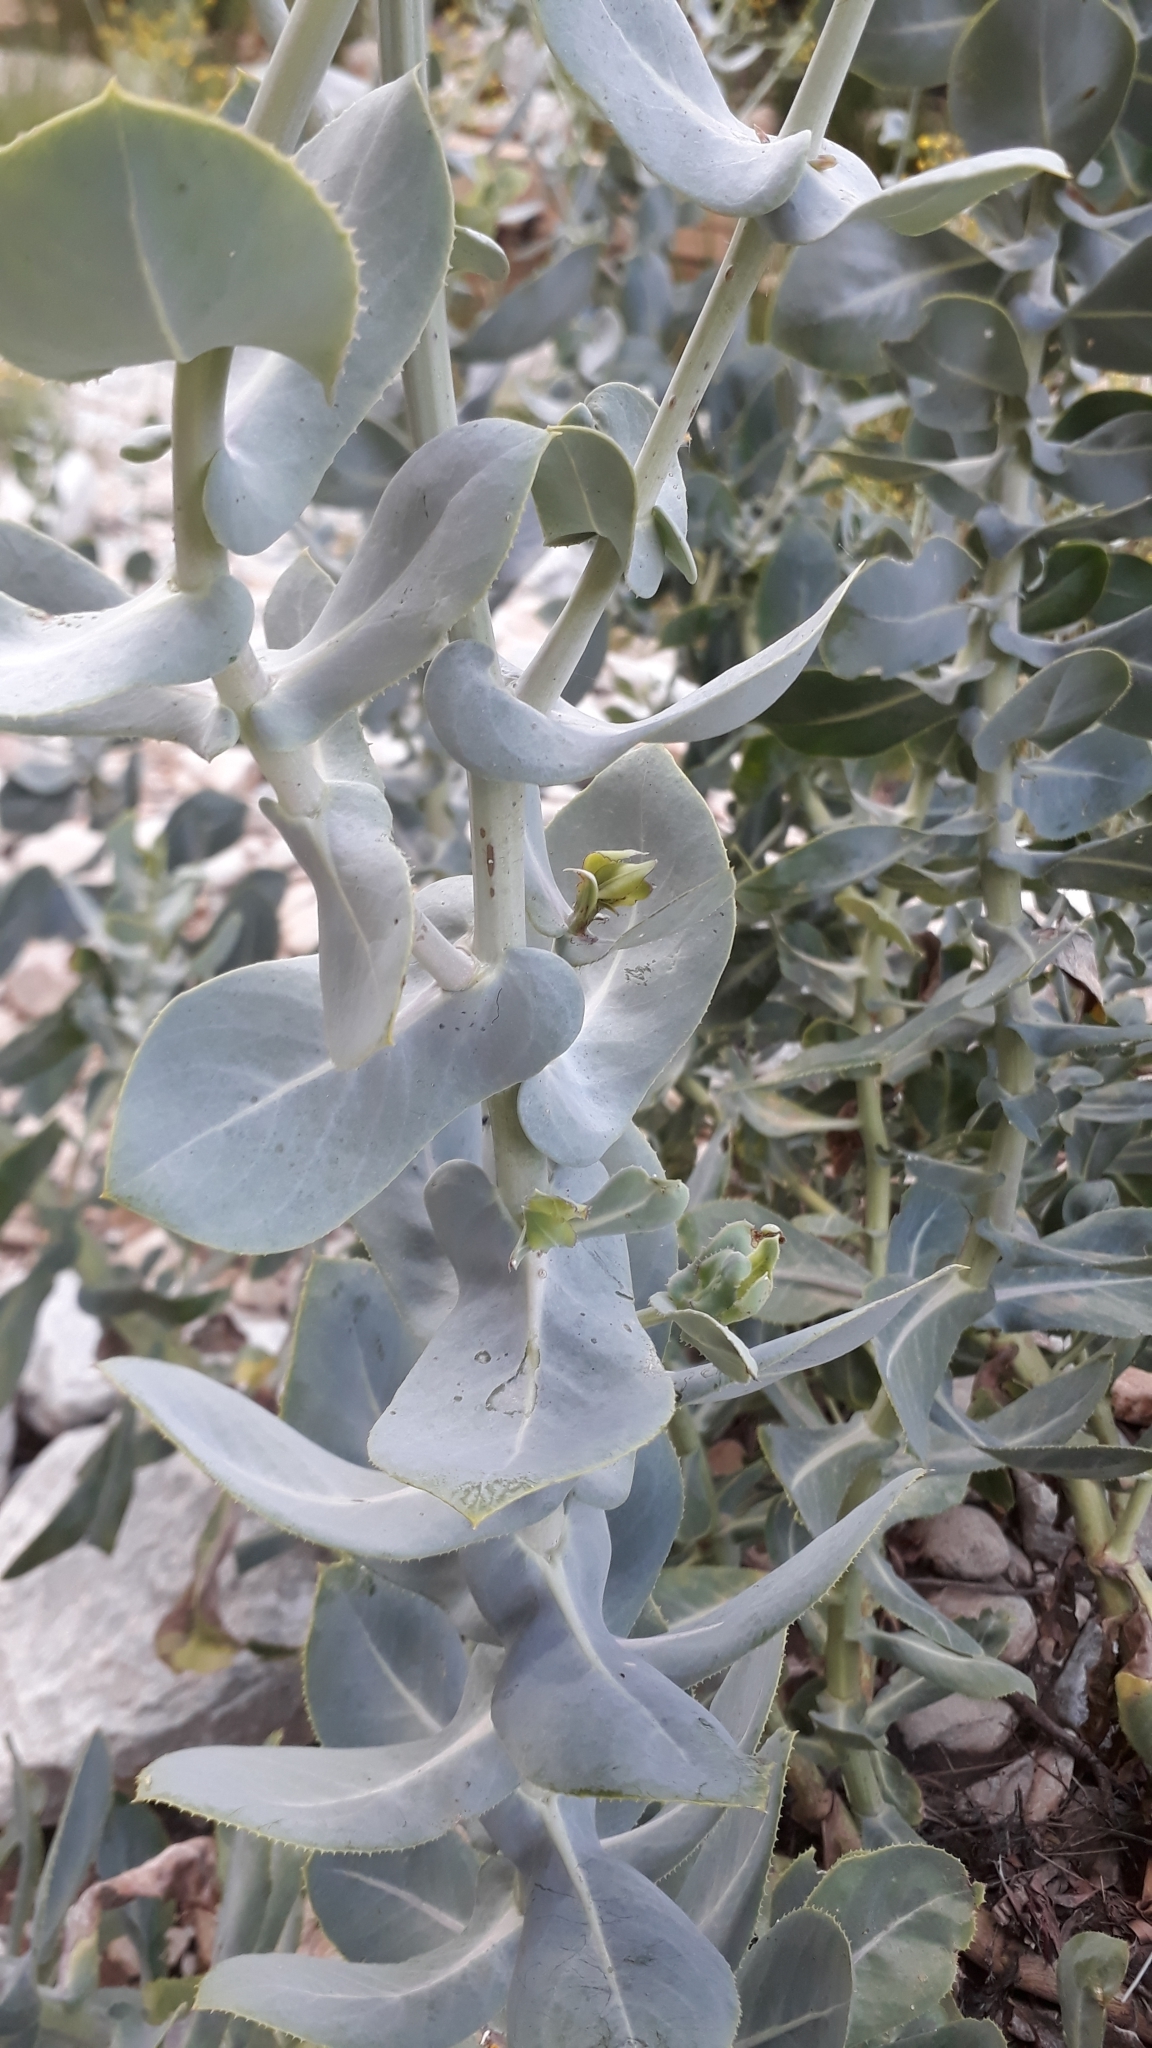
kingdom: Plantae
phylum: Tracheophyta
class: Magnoliopsida
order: Asterales
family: Asteraceae
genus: Othonna
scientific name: Othonna parviflora
